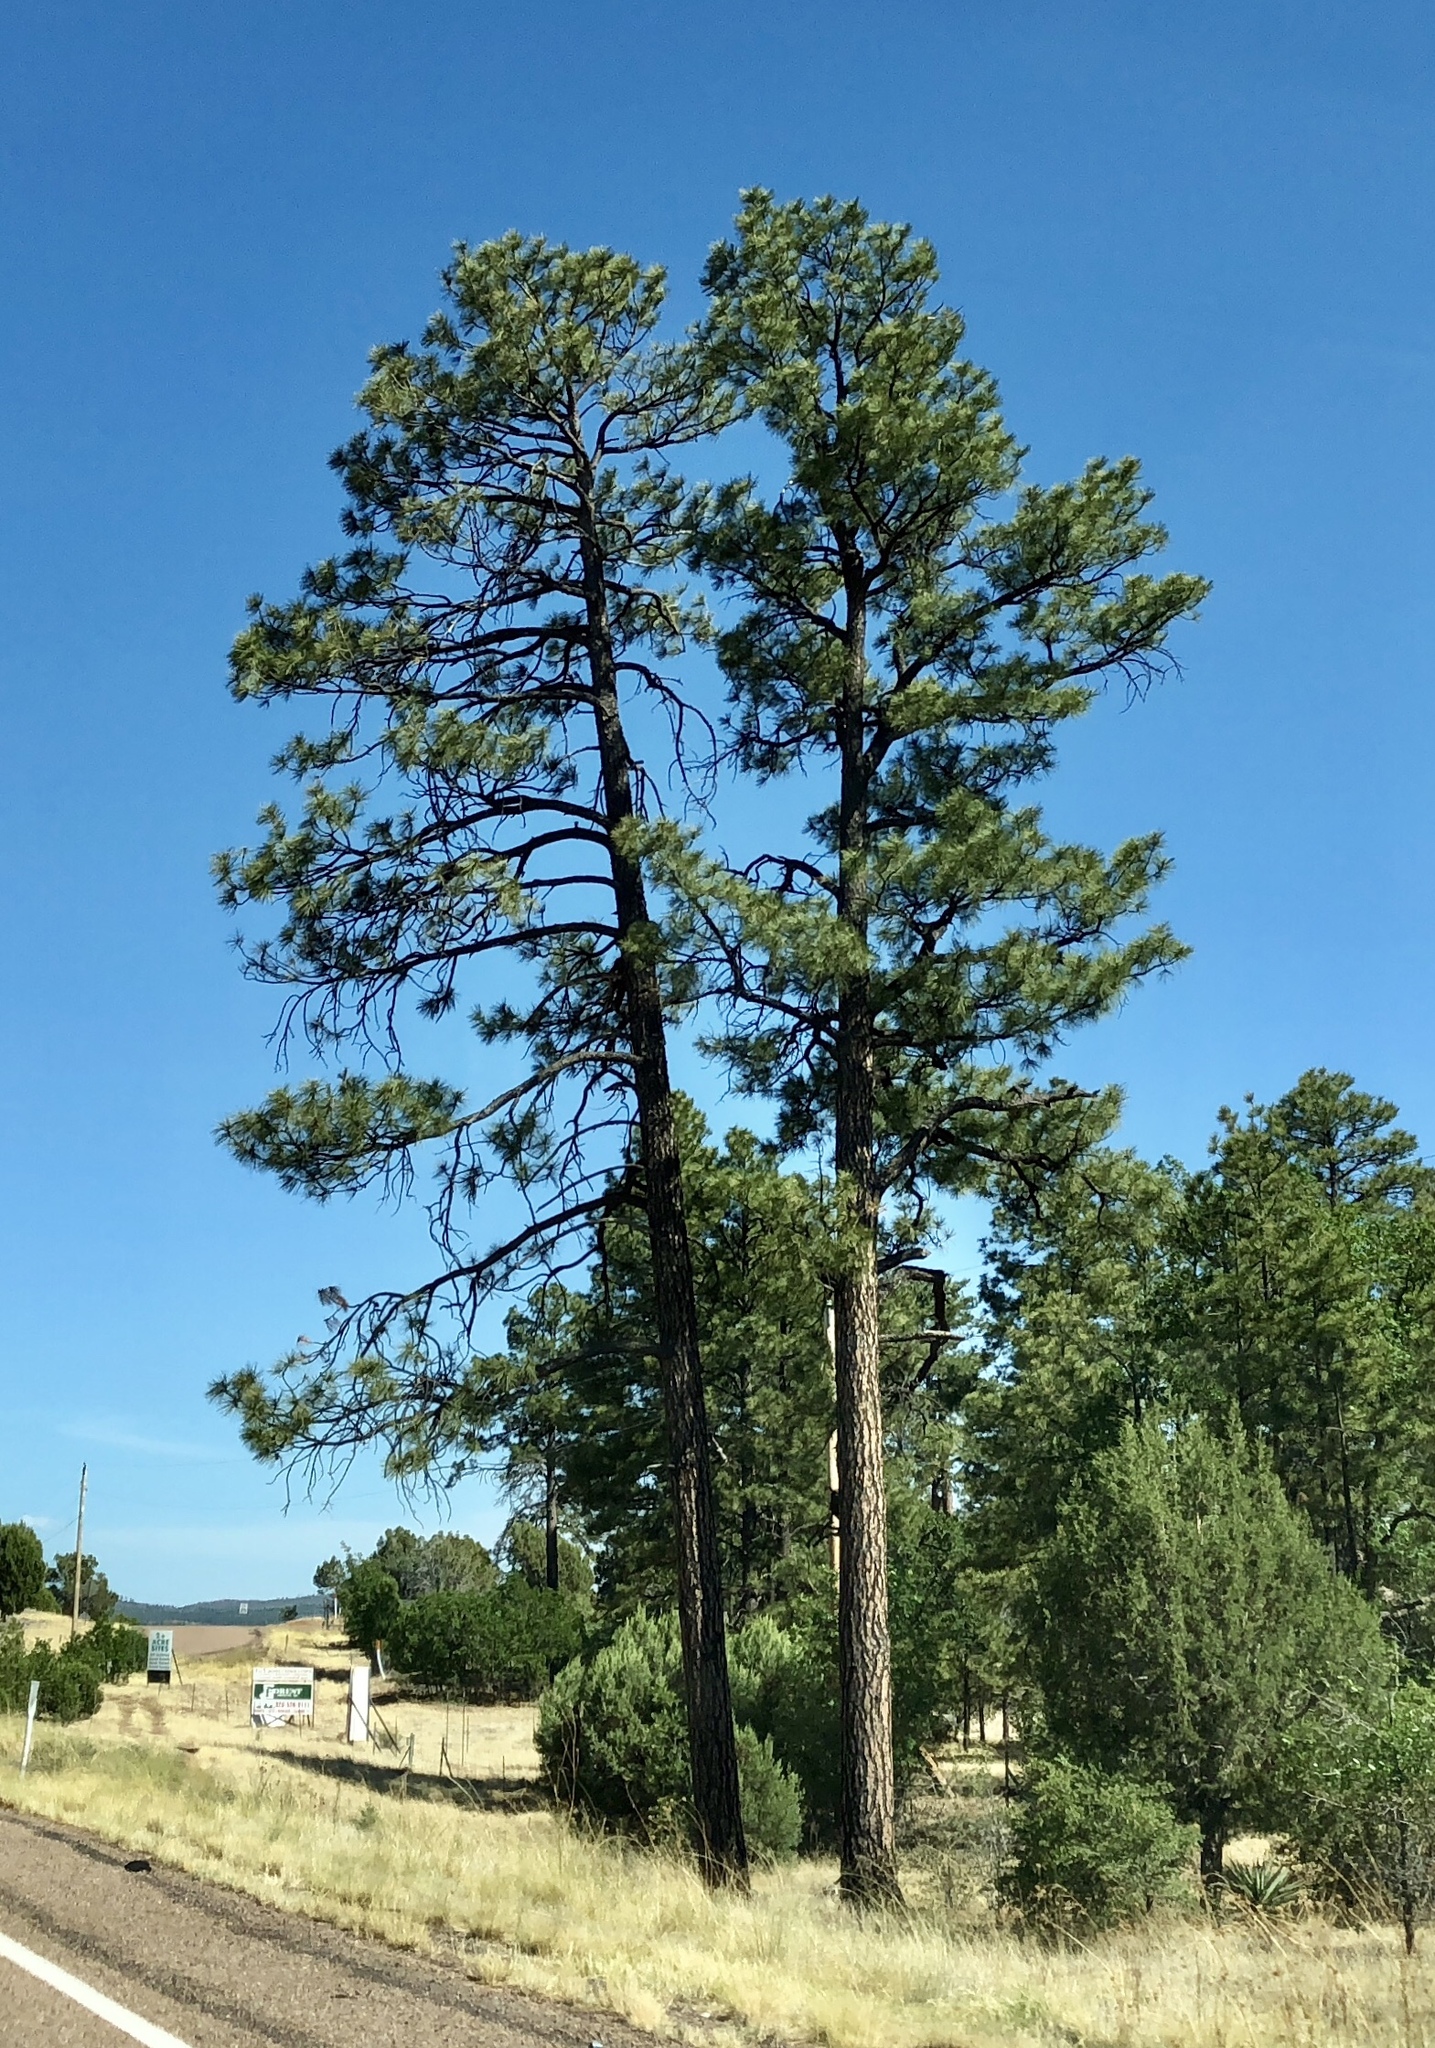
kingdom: Plantae
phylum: Tracheophyta
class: Pinopsida
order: Pinales
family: Pinaceae
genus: Pinus
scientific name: Pinus ponderosa
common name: Western yellow-pine
